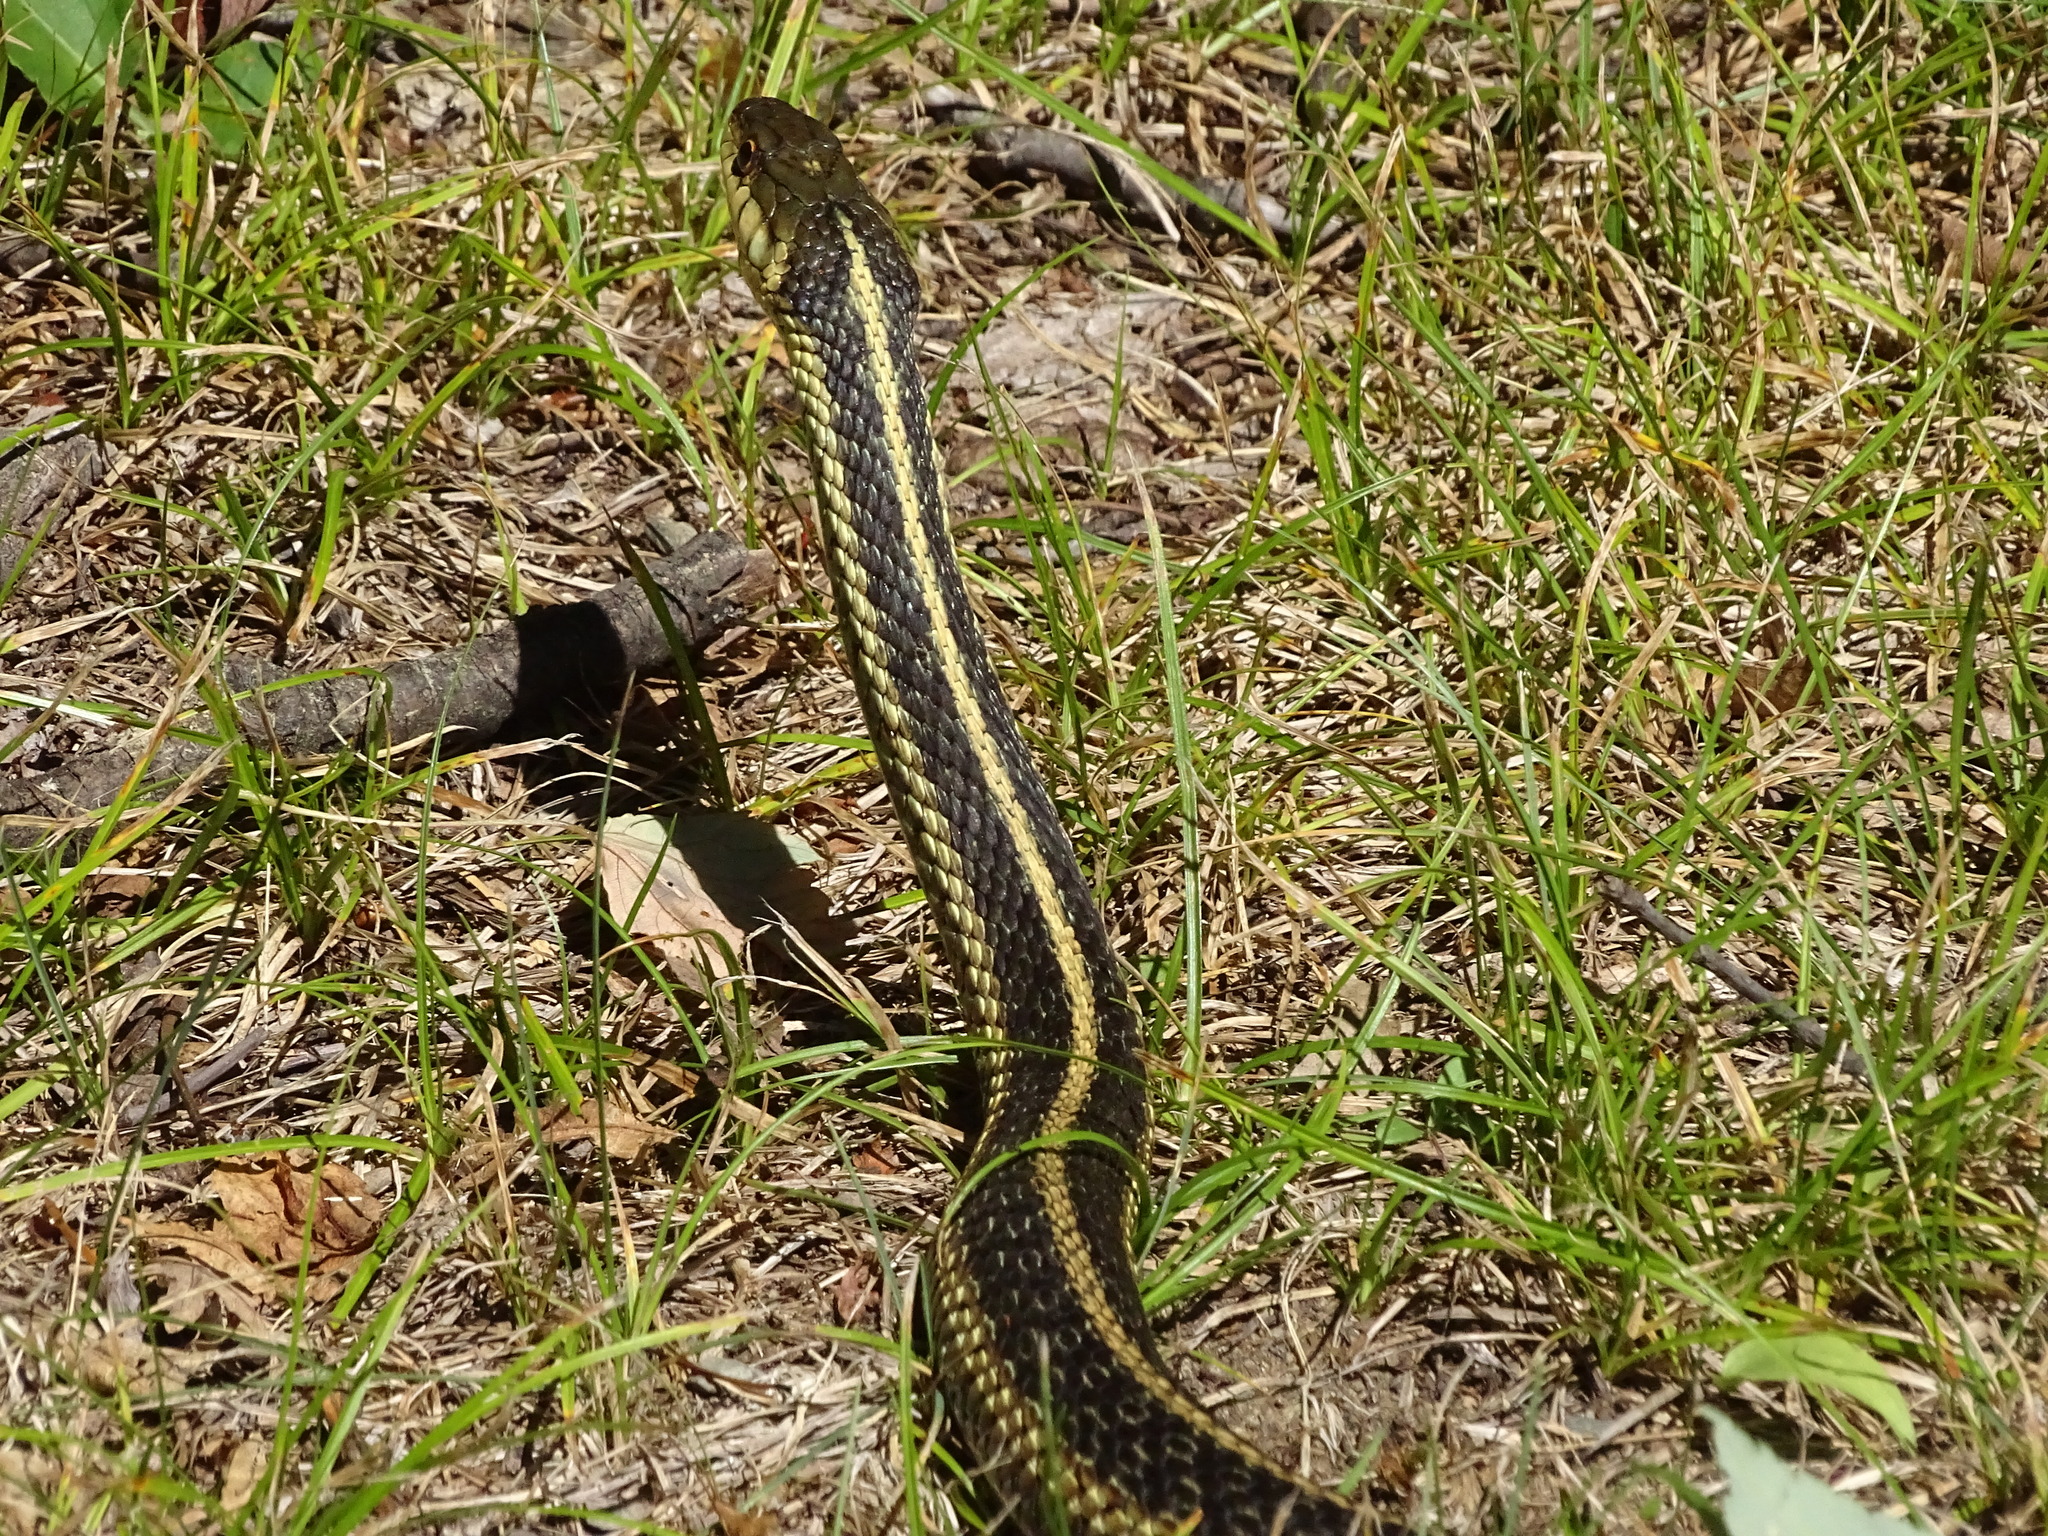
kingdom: Animalia
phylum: Chordata
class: Squamata
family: Colubridae
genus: Thamnophis
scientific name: Thamnophis sirtalis
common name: Common garter snake
